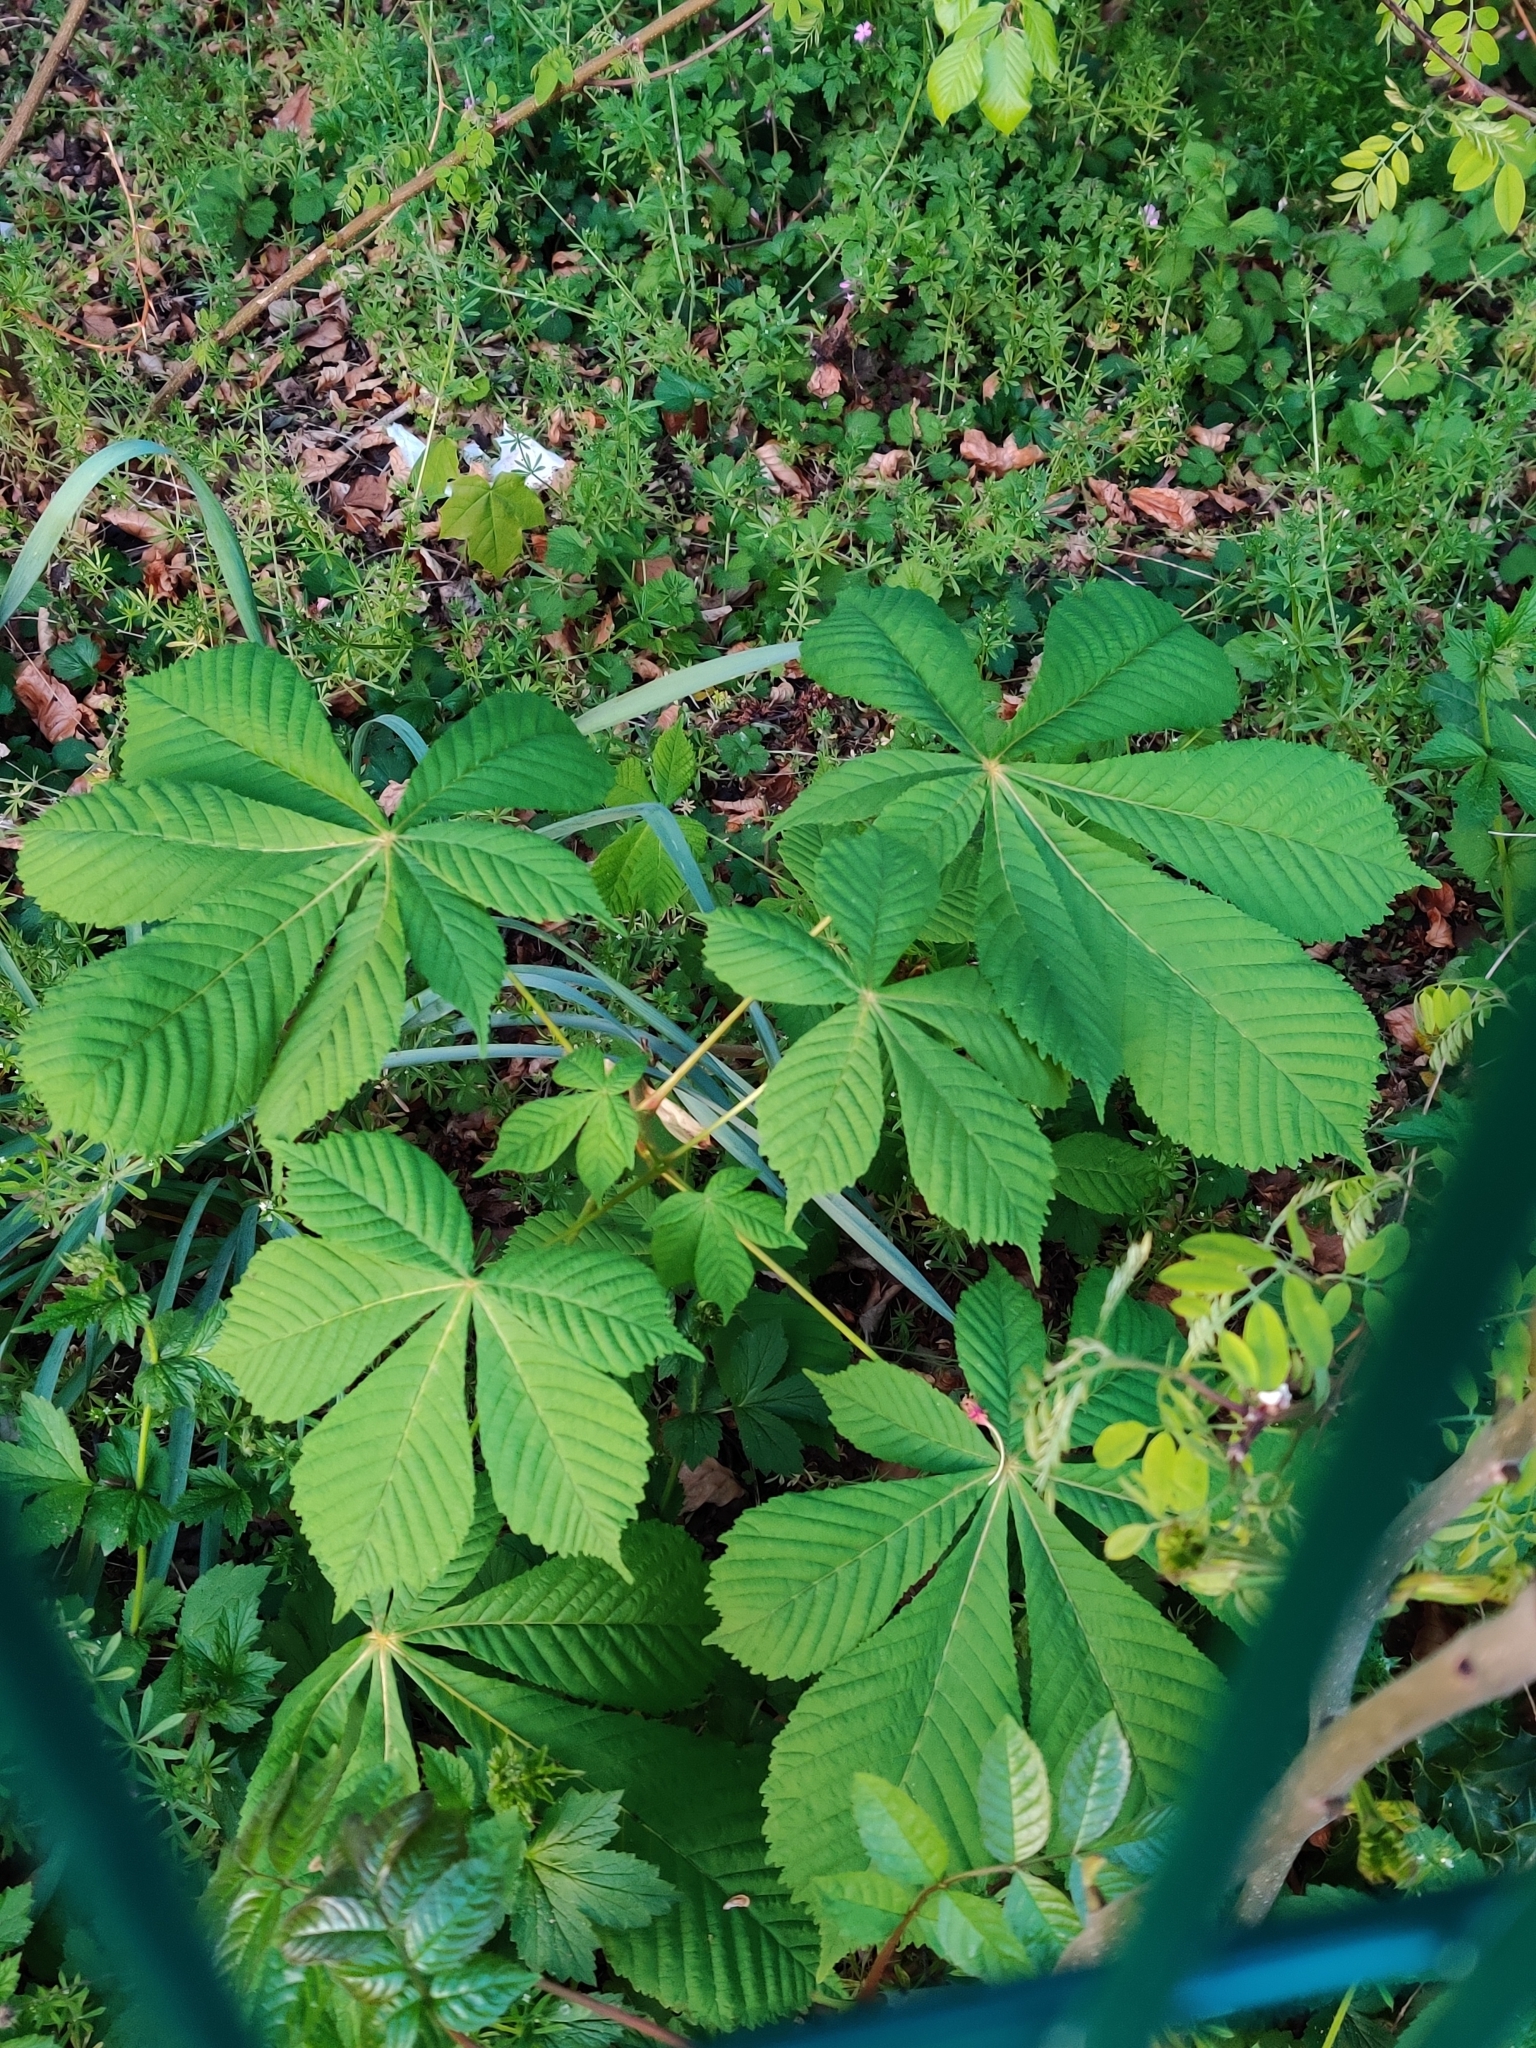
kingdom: Plantae
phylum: Tracheophyta
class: Magnoliopsida
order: Sapindales
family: Sapindaceae
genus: Aesculus
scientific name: Aesculus hippocastanum
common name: Horse-chestnut
